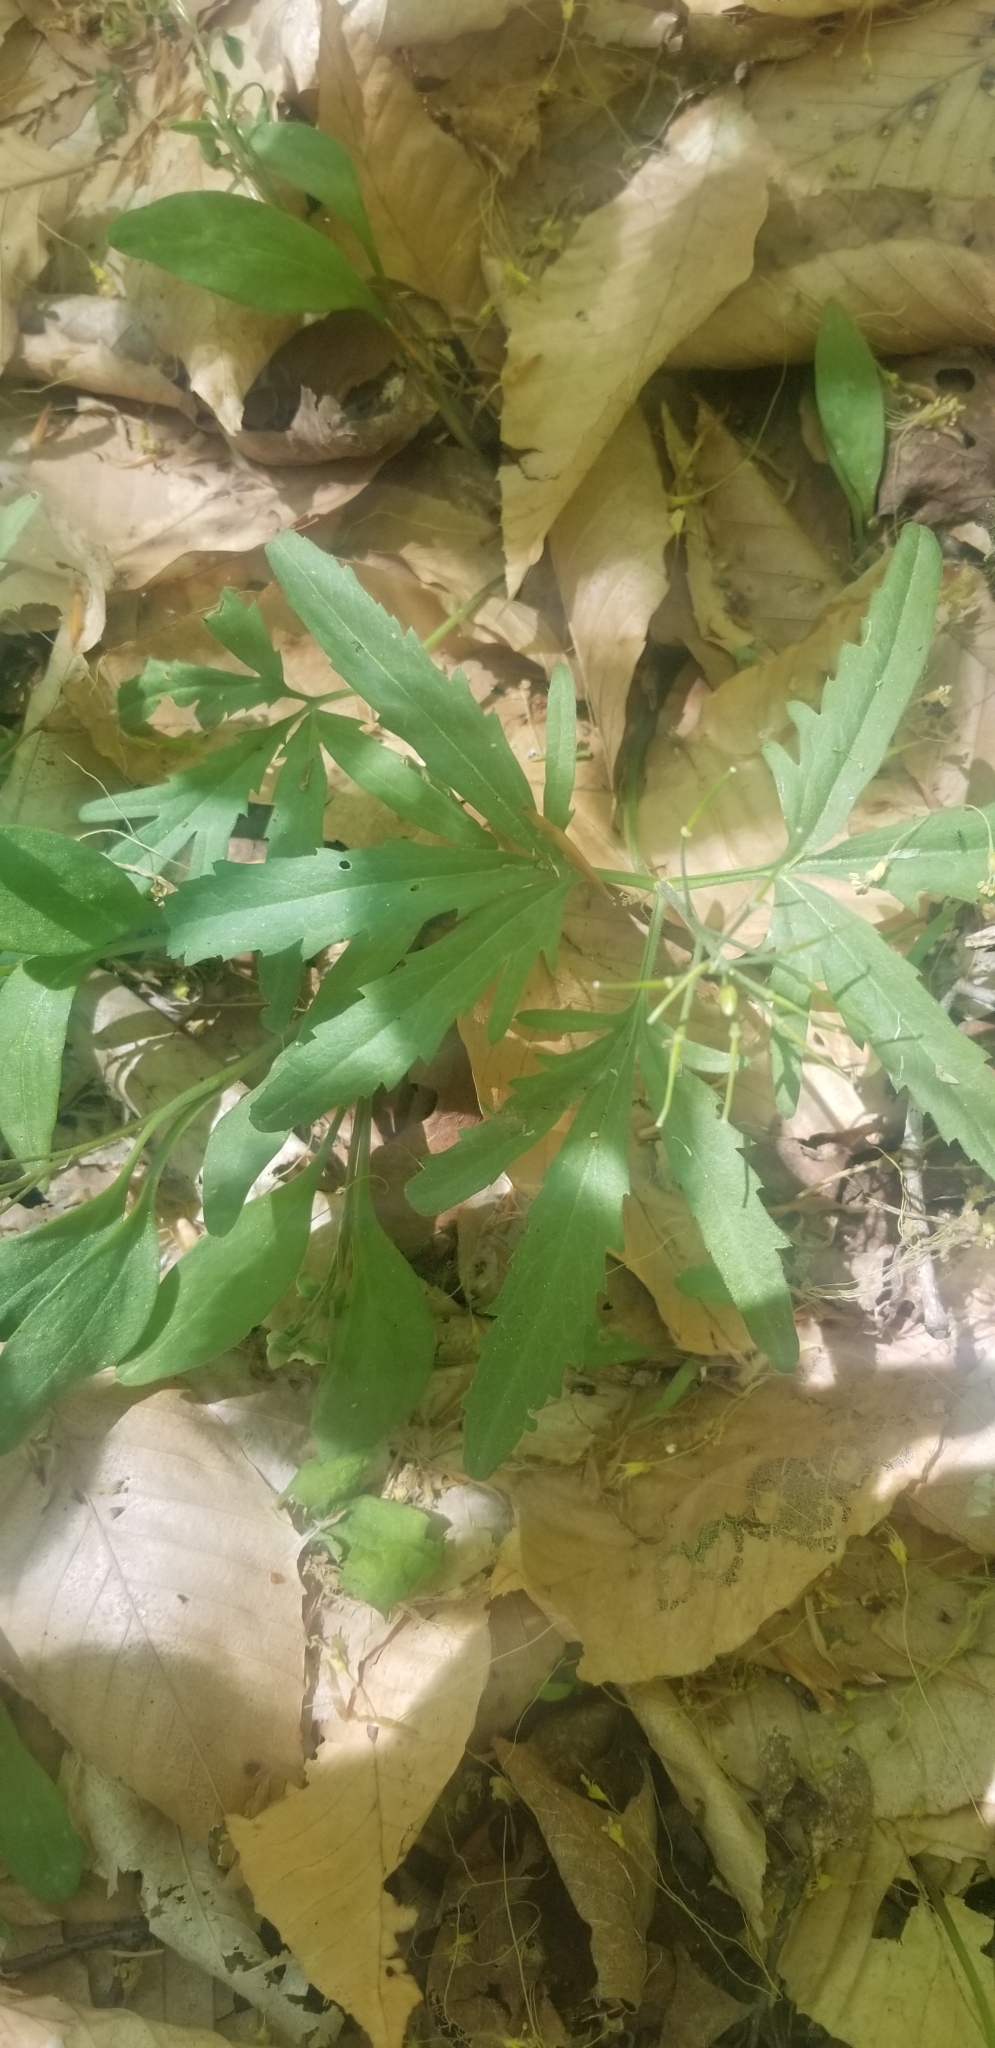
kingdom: Plantae
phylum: Tracheophyta
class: Magnoliopsida
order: Brassicales
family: Brassicaceae
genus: Cardamine
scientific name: Cardamine concatenata
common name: Cut-leaf toothcup
